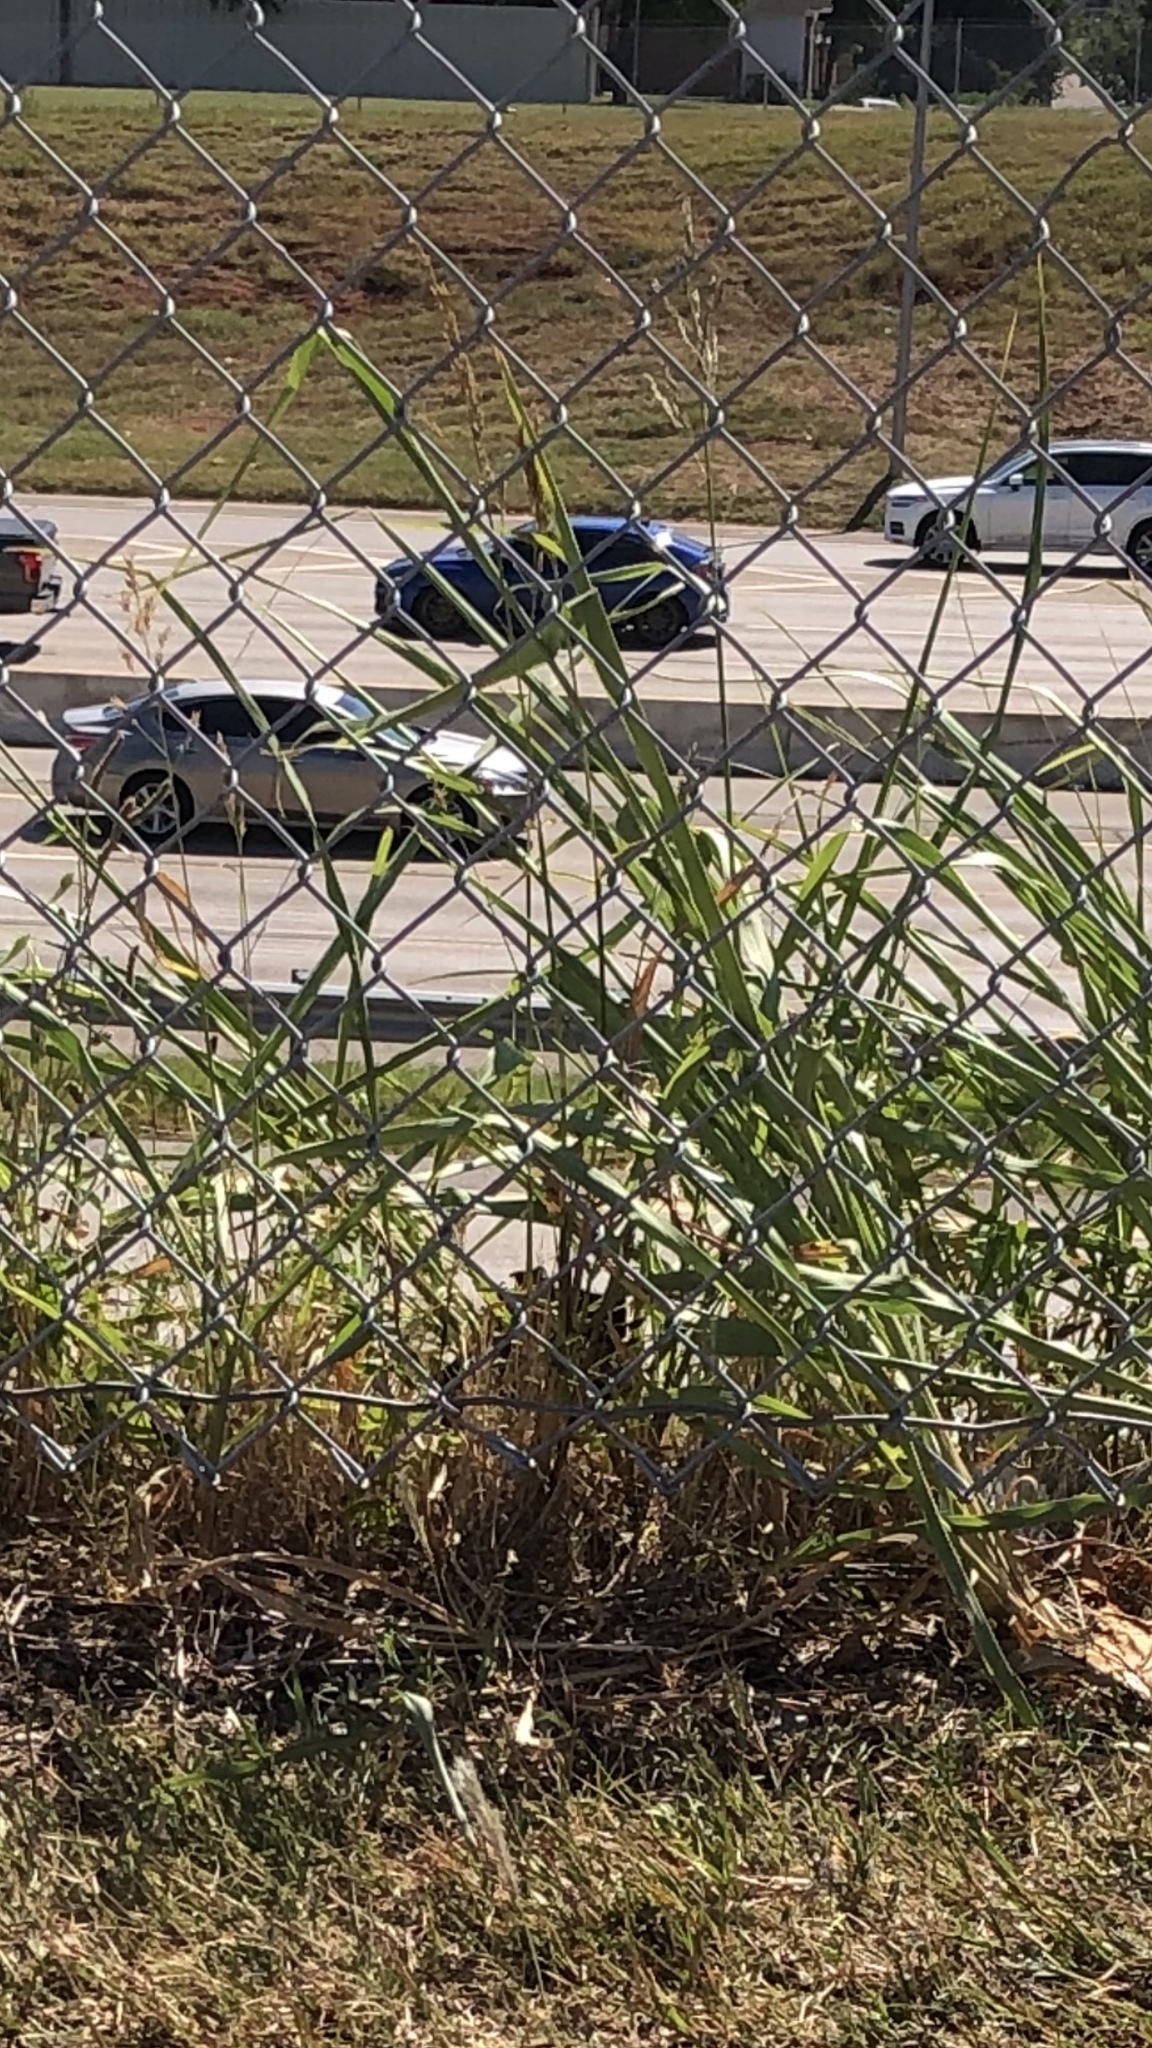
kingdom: Plantae
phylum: Tracheophyta
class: Liliopsida
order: Poales
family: Poaceae
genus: Sorghum
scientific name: Sorghum halepense
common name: Johnson-grass
